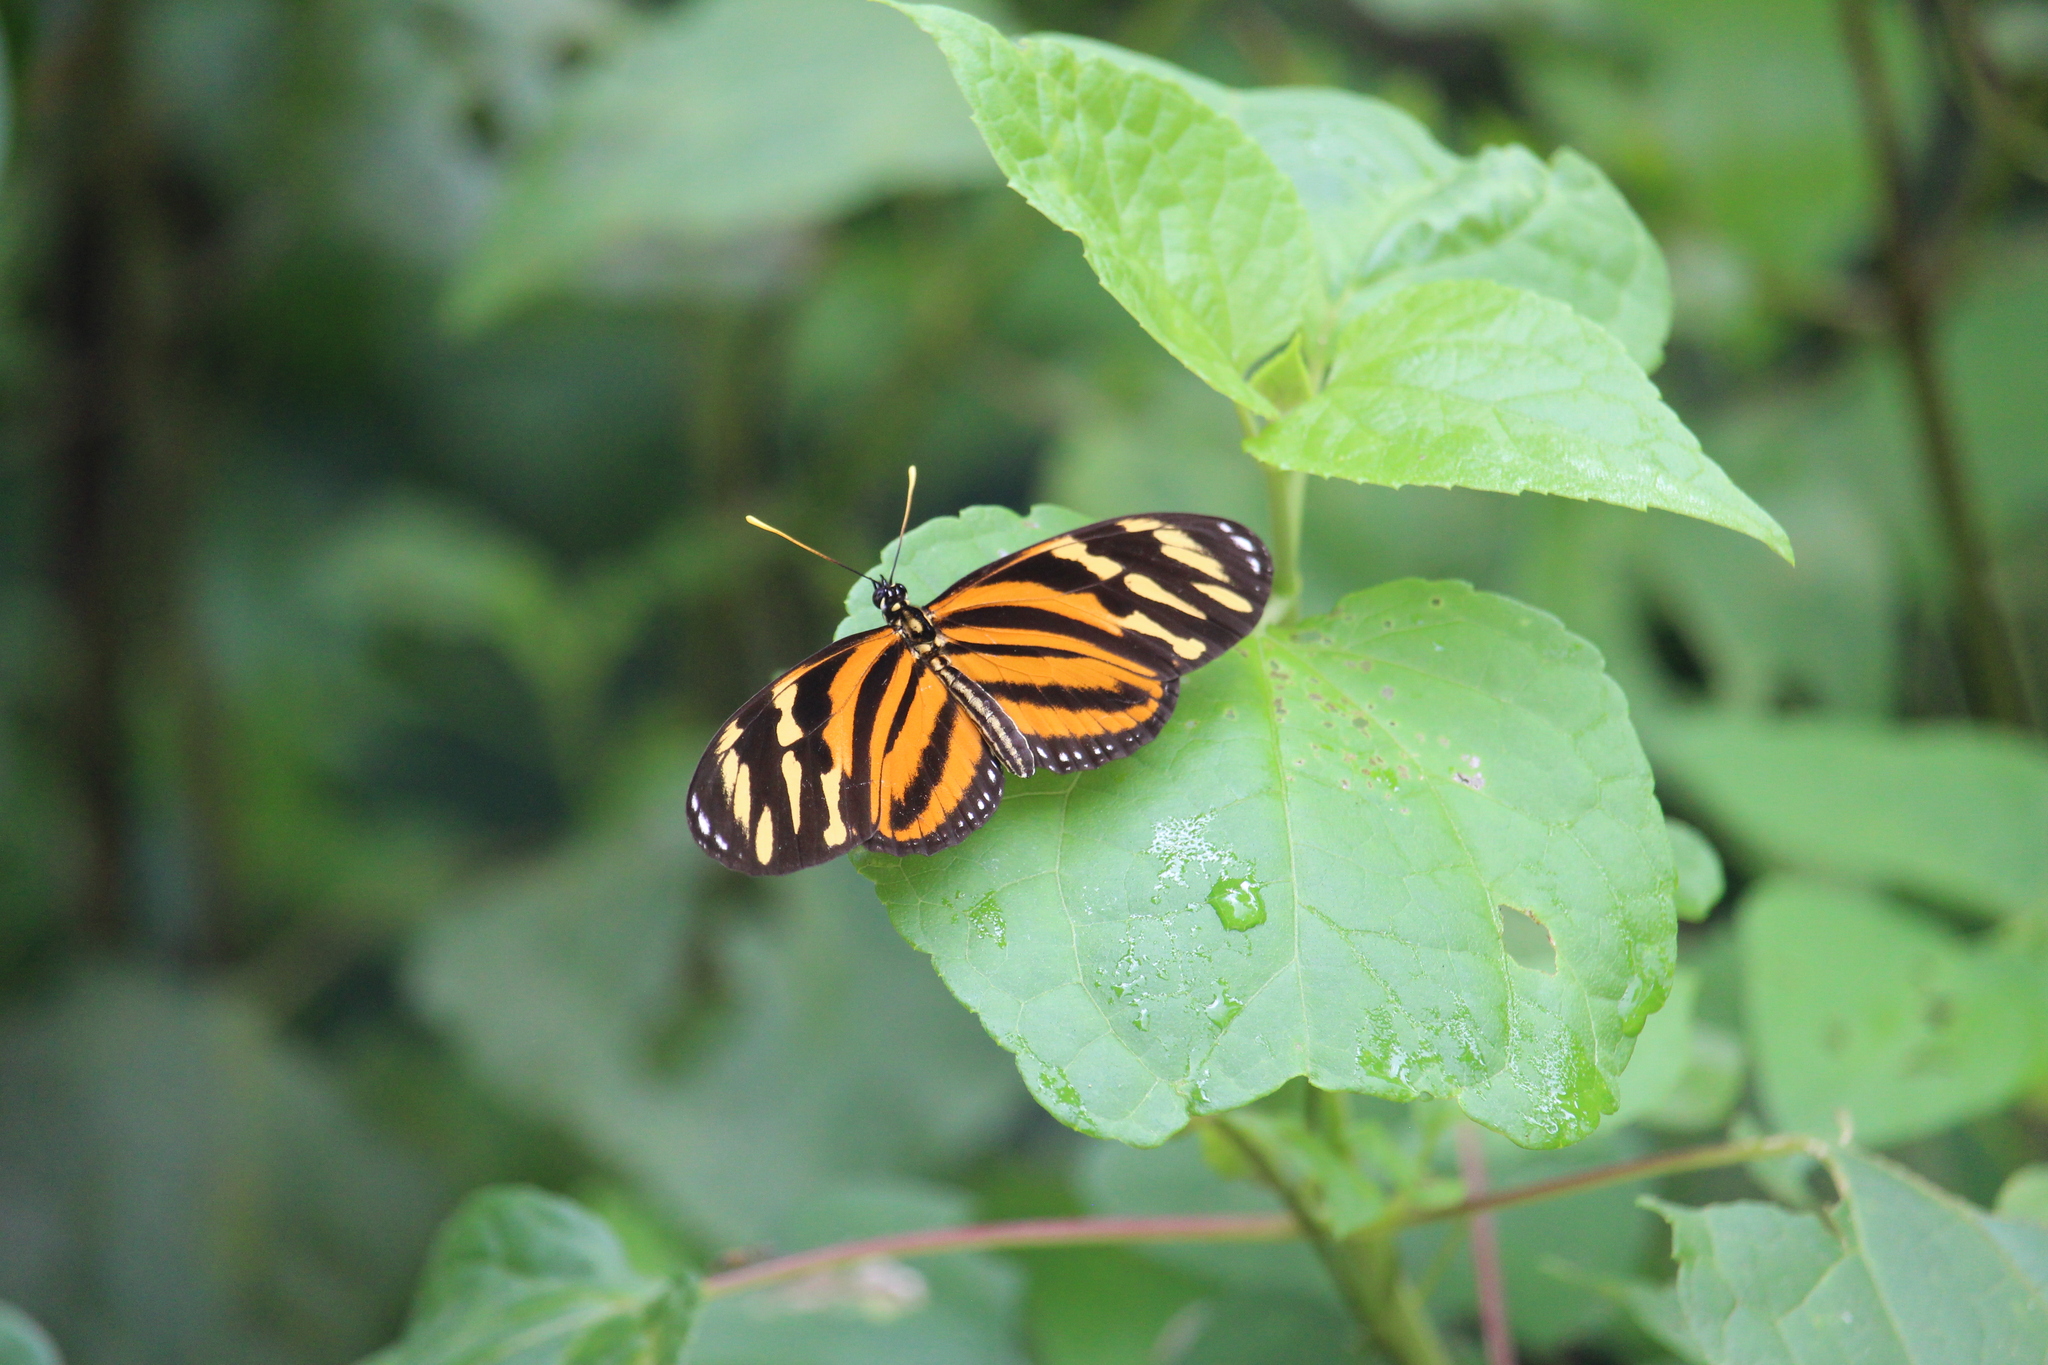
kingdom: Animalia
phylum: Arthropoda
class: Insecta
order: Lepidoptera
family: Nymphalidae
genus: Eueides
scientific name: Eueides isabella
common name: Isabella's longwing
